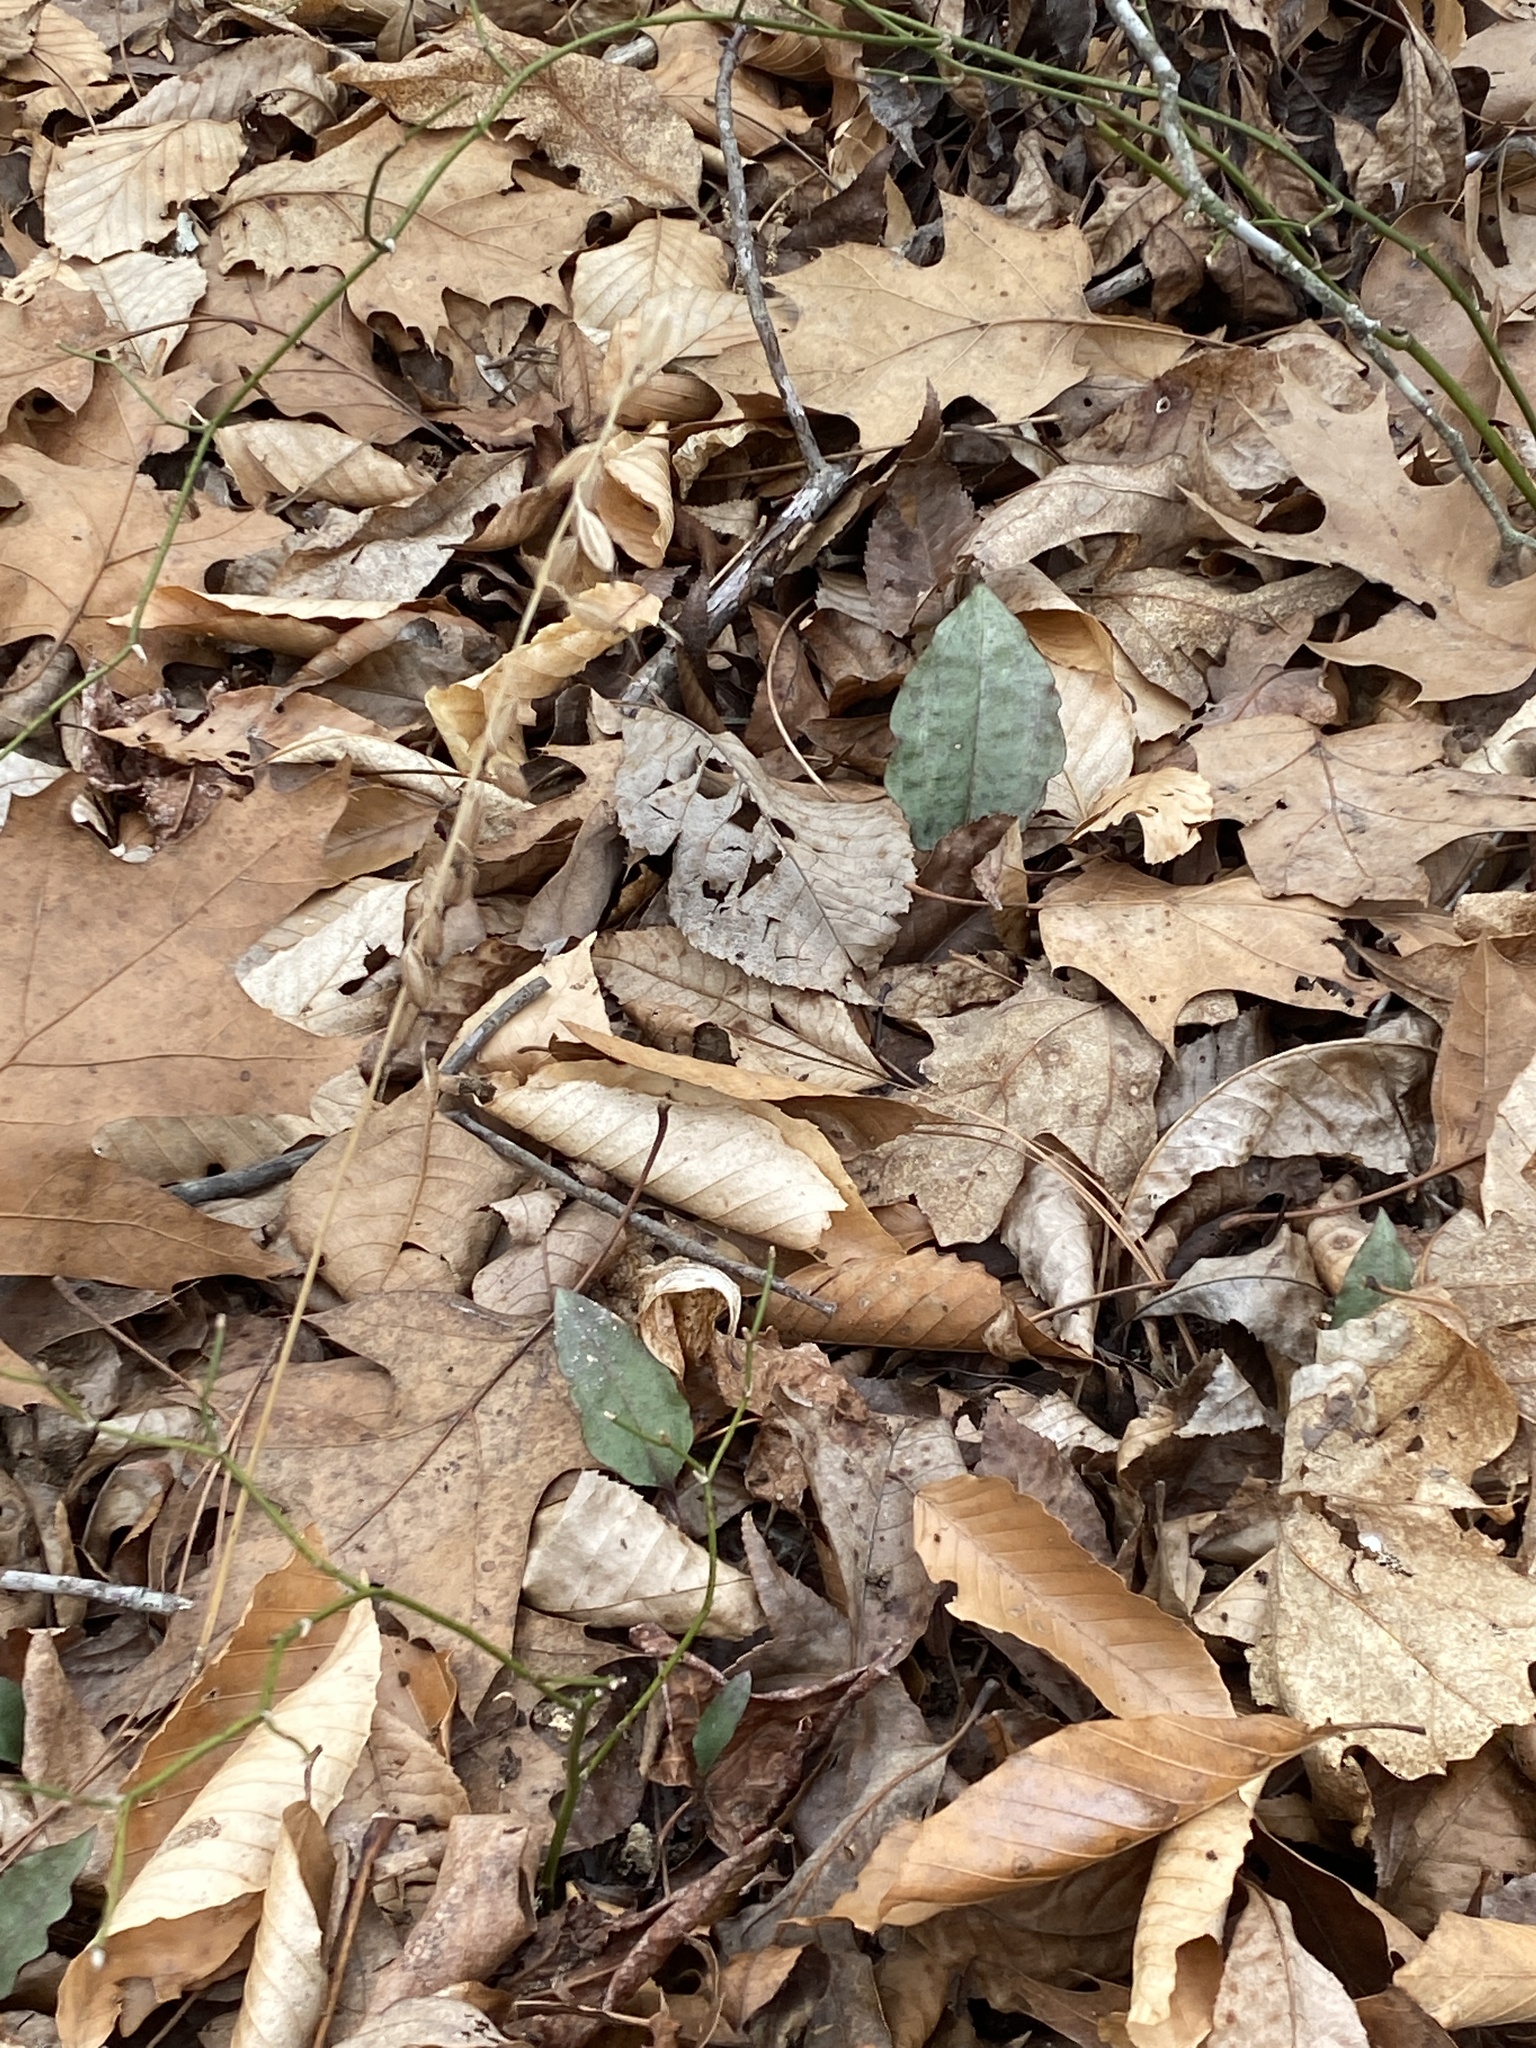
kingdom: Plantae
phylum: Tracheophyta
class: Liliopsida
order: Asparagales
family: Orchidaceae
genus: Tipularia
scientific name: Tipularia discolor
